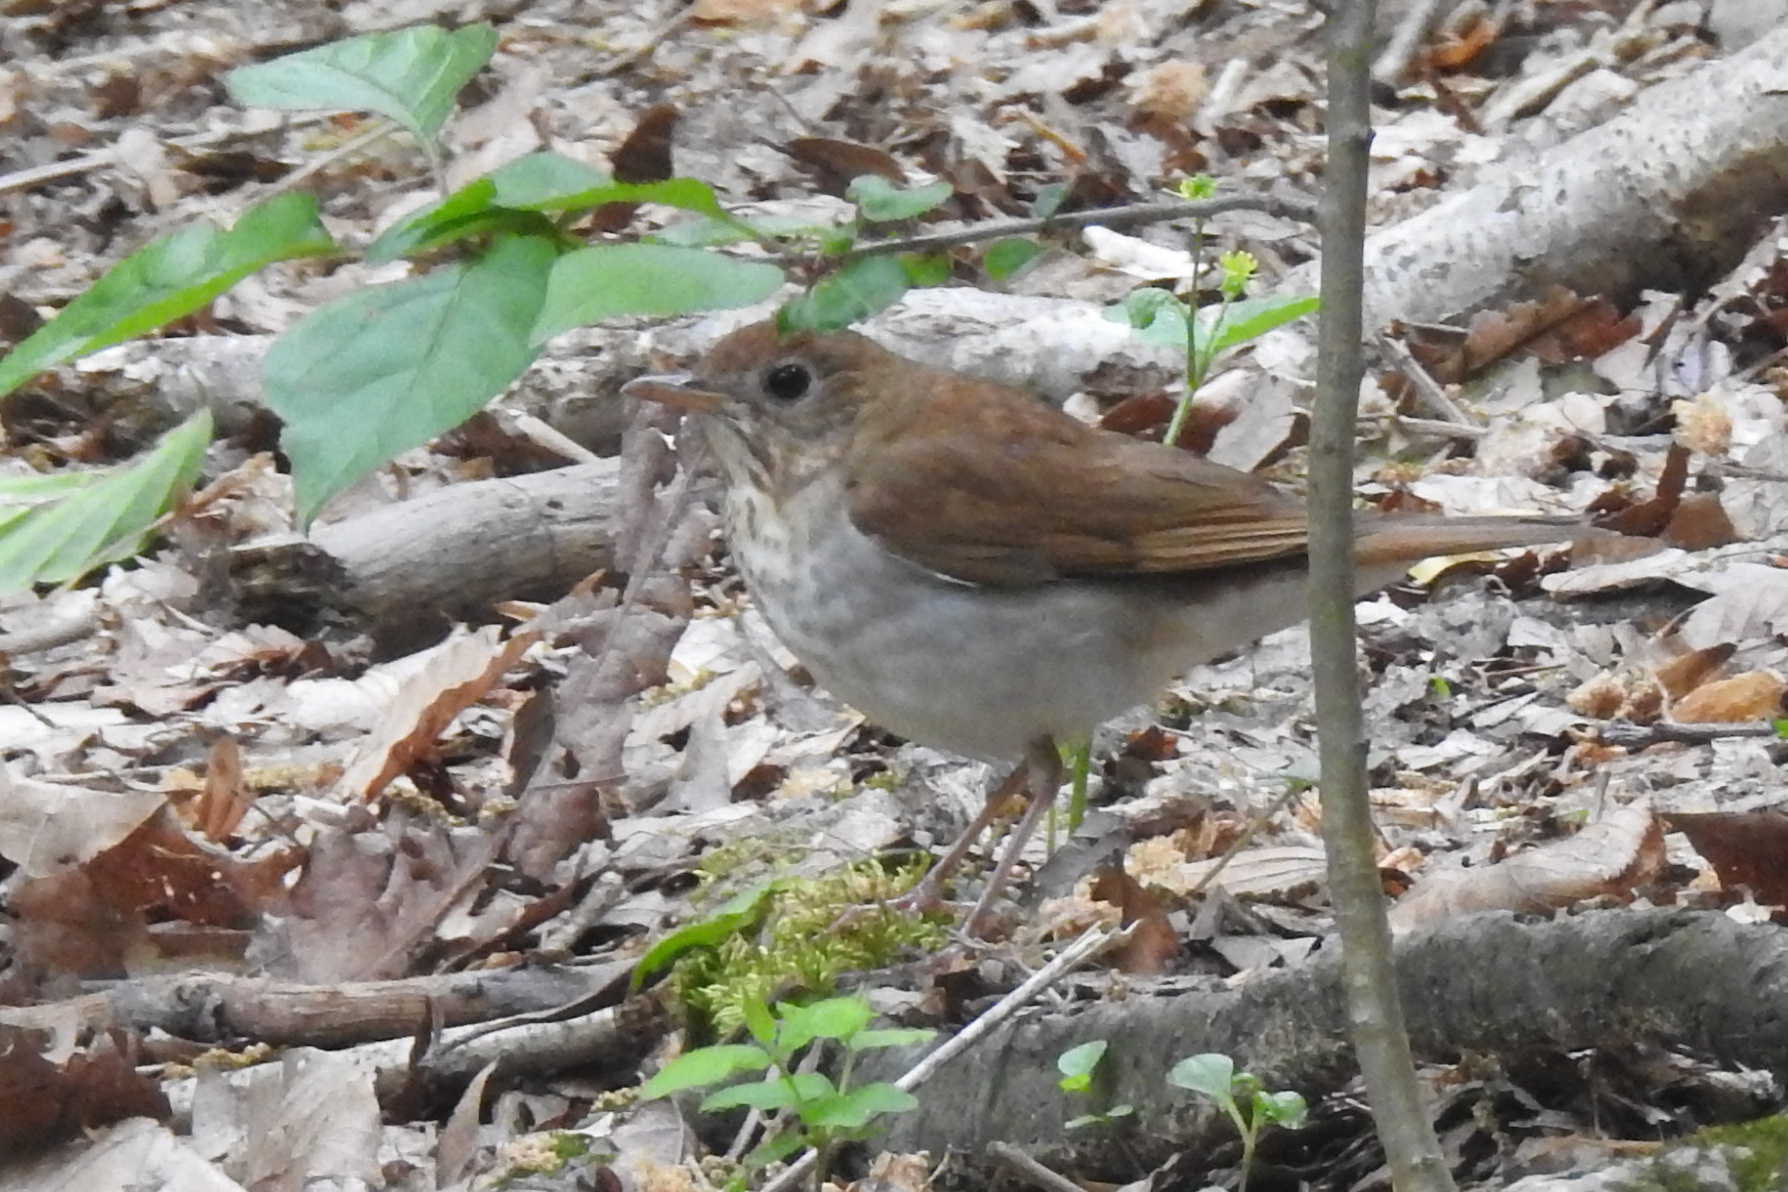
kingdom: Animalia
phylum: Chordata
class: Aves
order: Passeriformes
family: Turdidae
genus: Catharus
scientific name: Catharus fuscescens
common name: Veery
